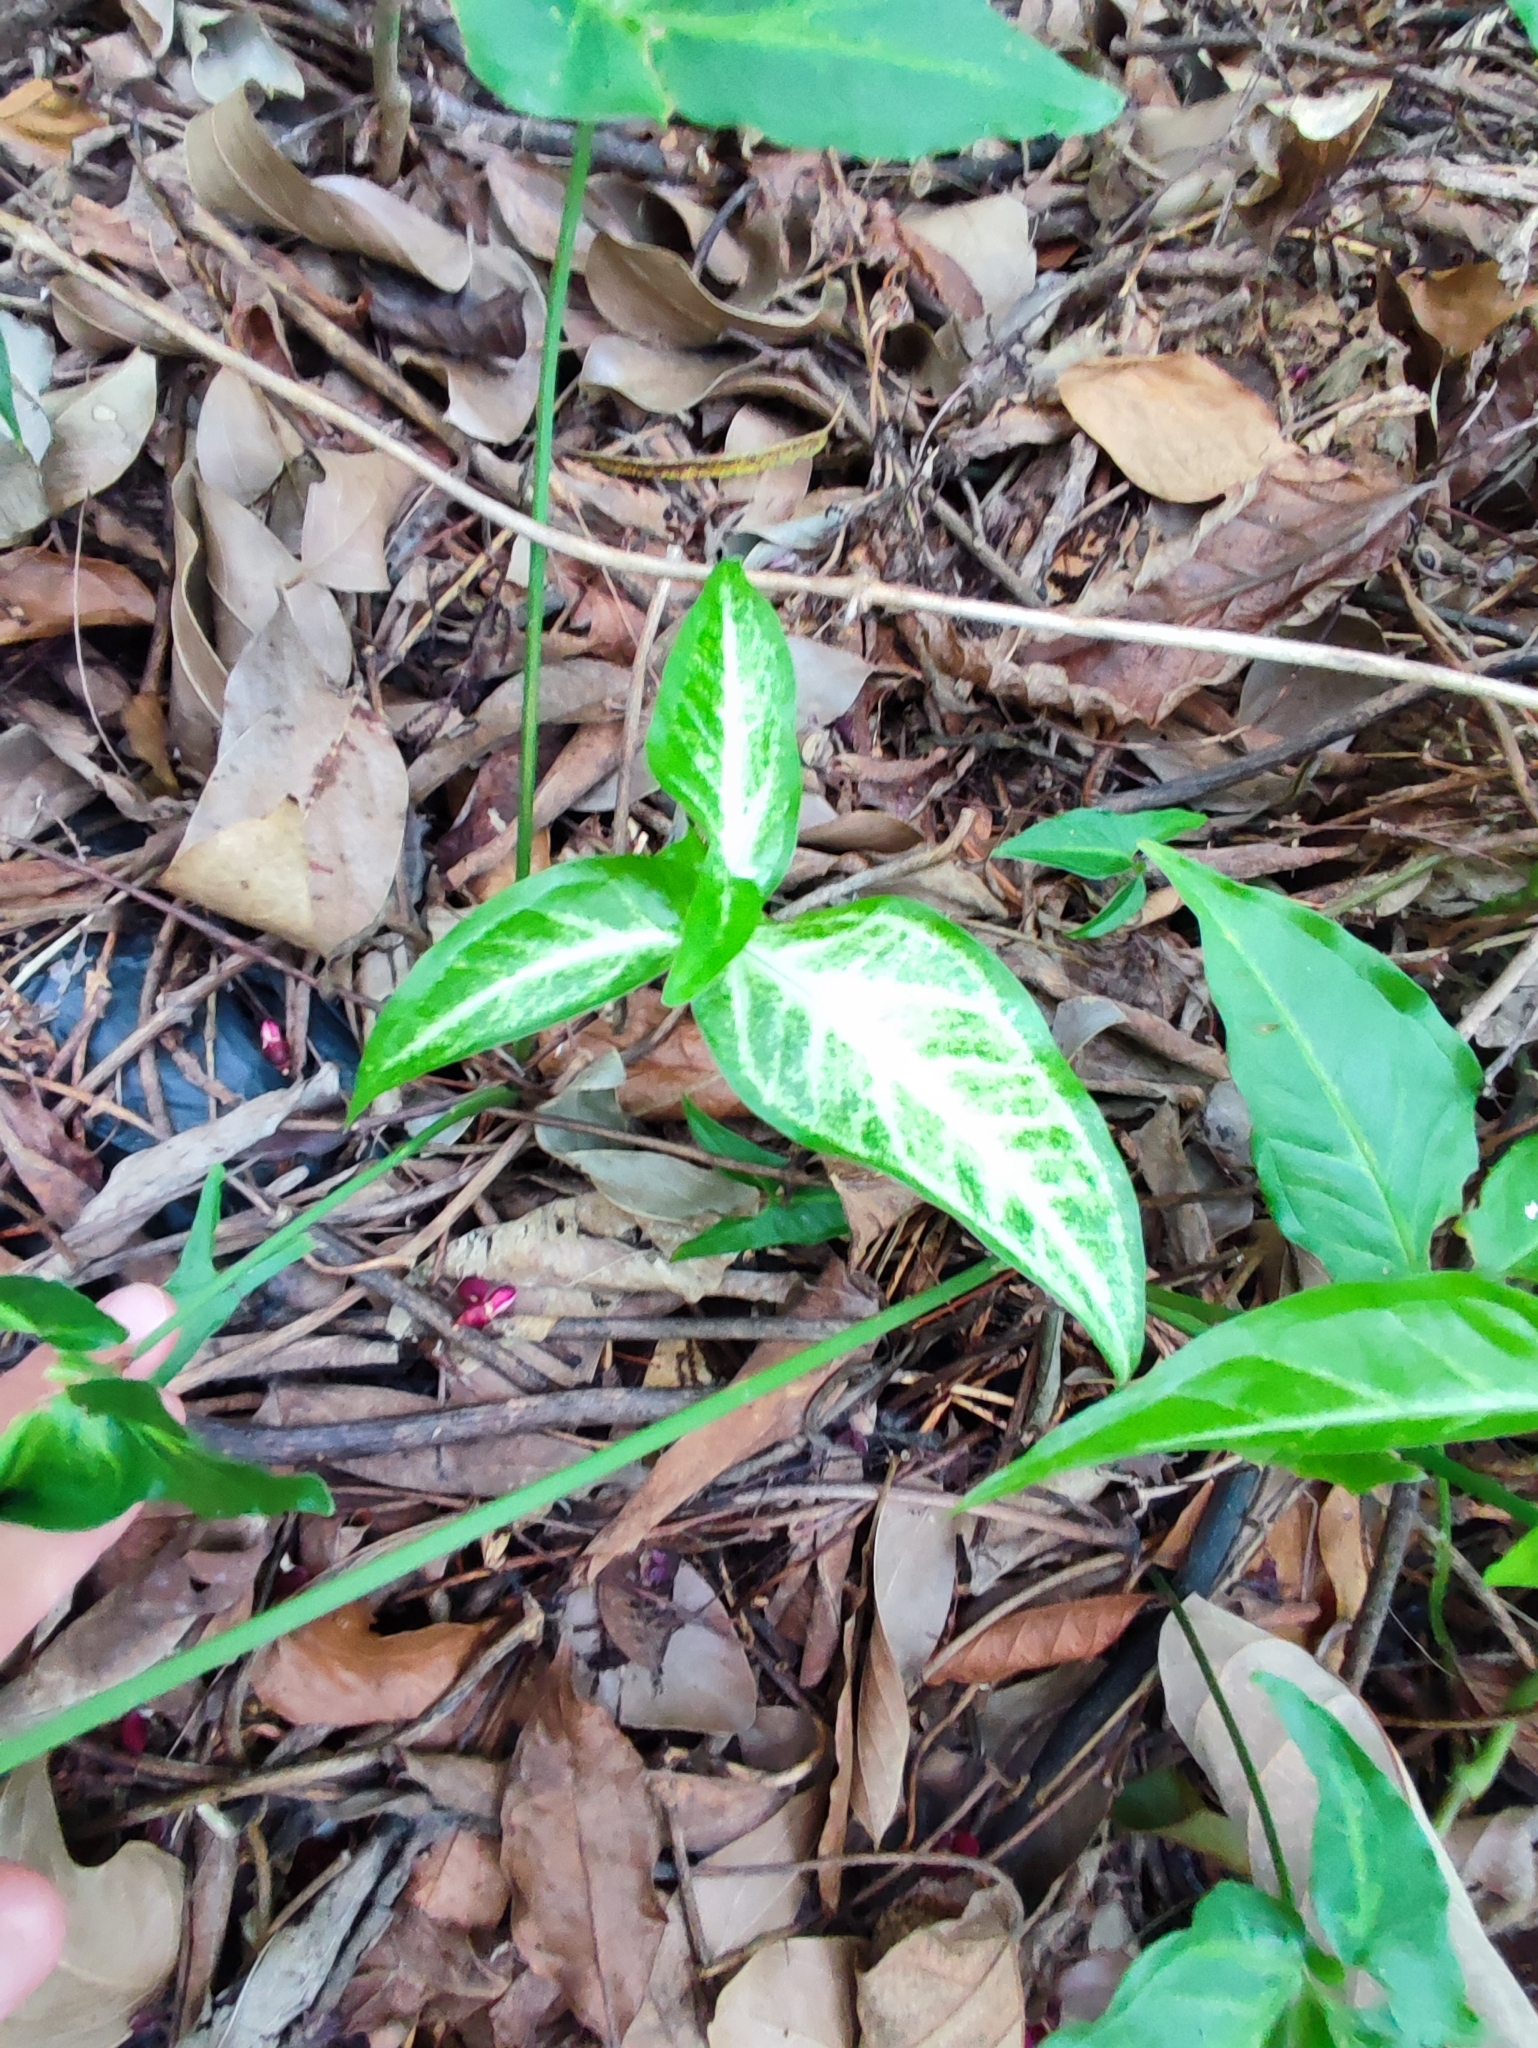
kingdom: Plantae
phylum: Tracheophyta
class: Liliopsida
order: Alismatales
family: Araceae
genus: Syngonium
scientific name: Syngonium angustatum
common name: Fivefingers
